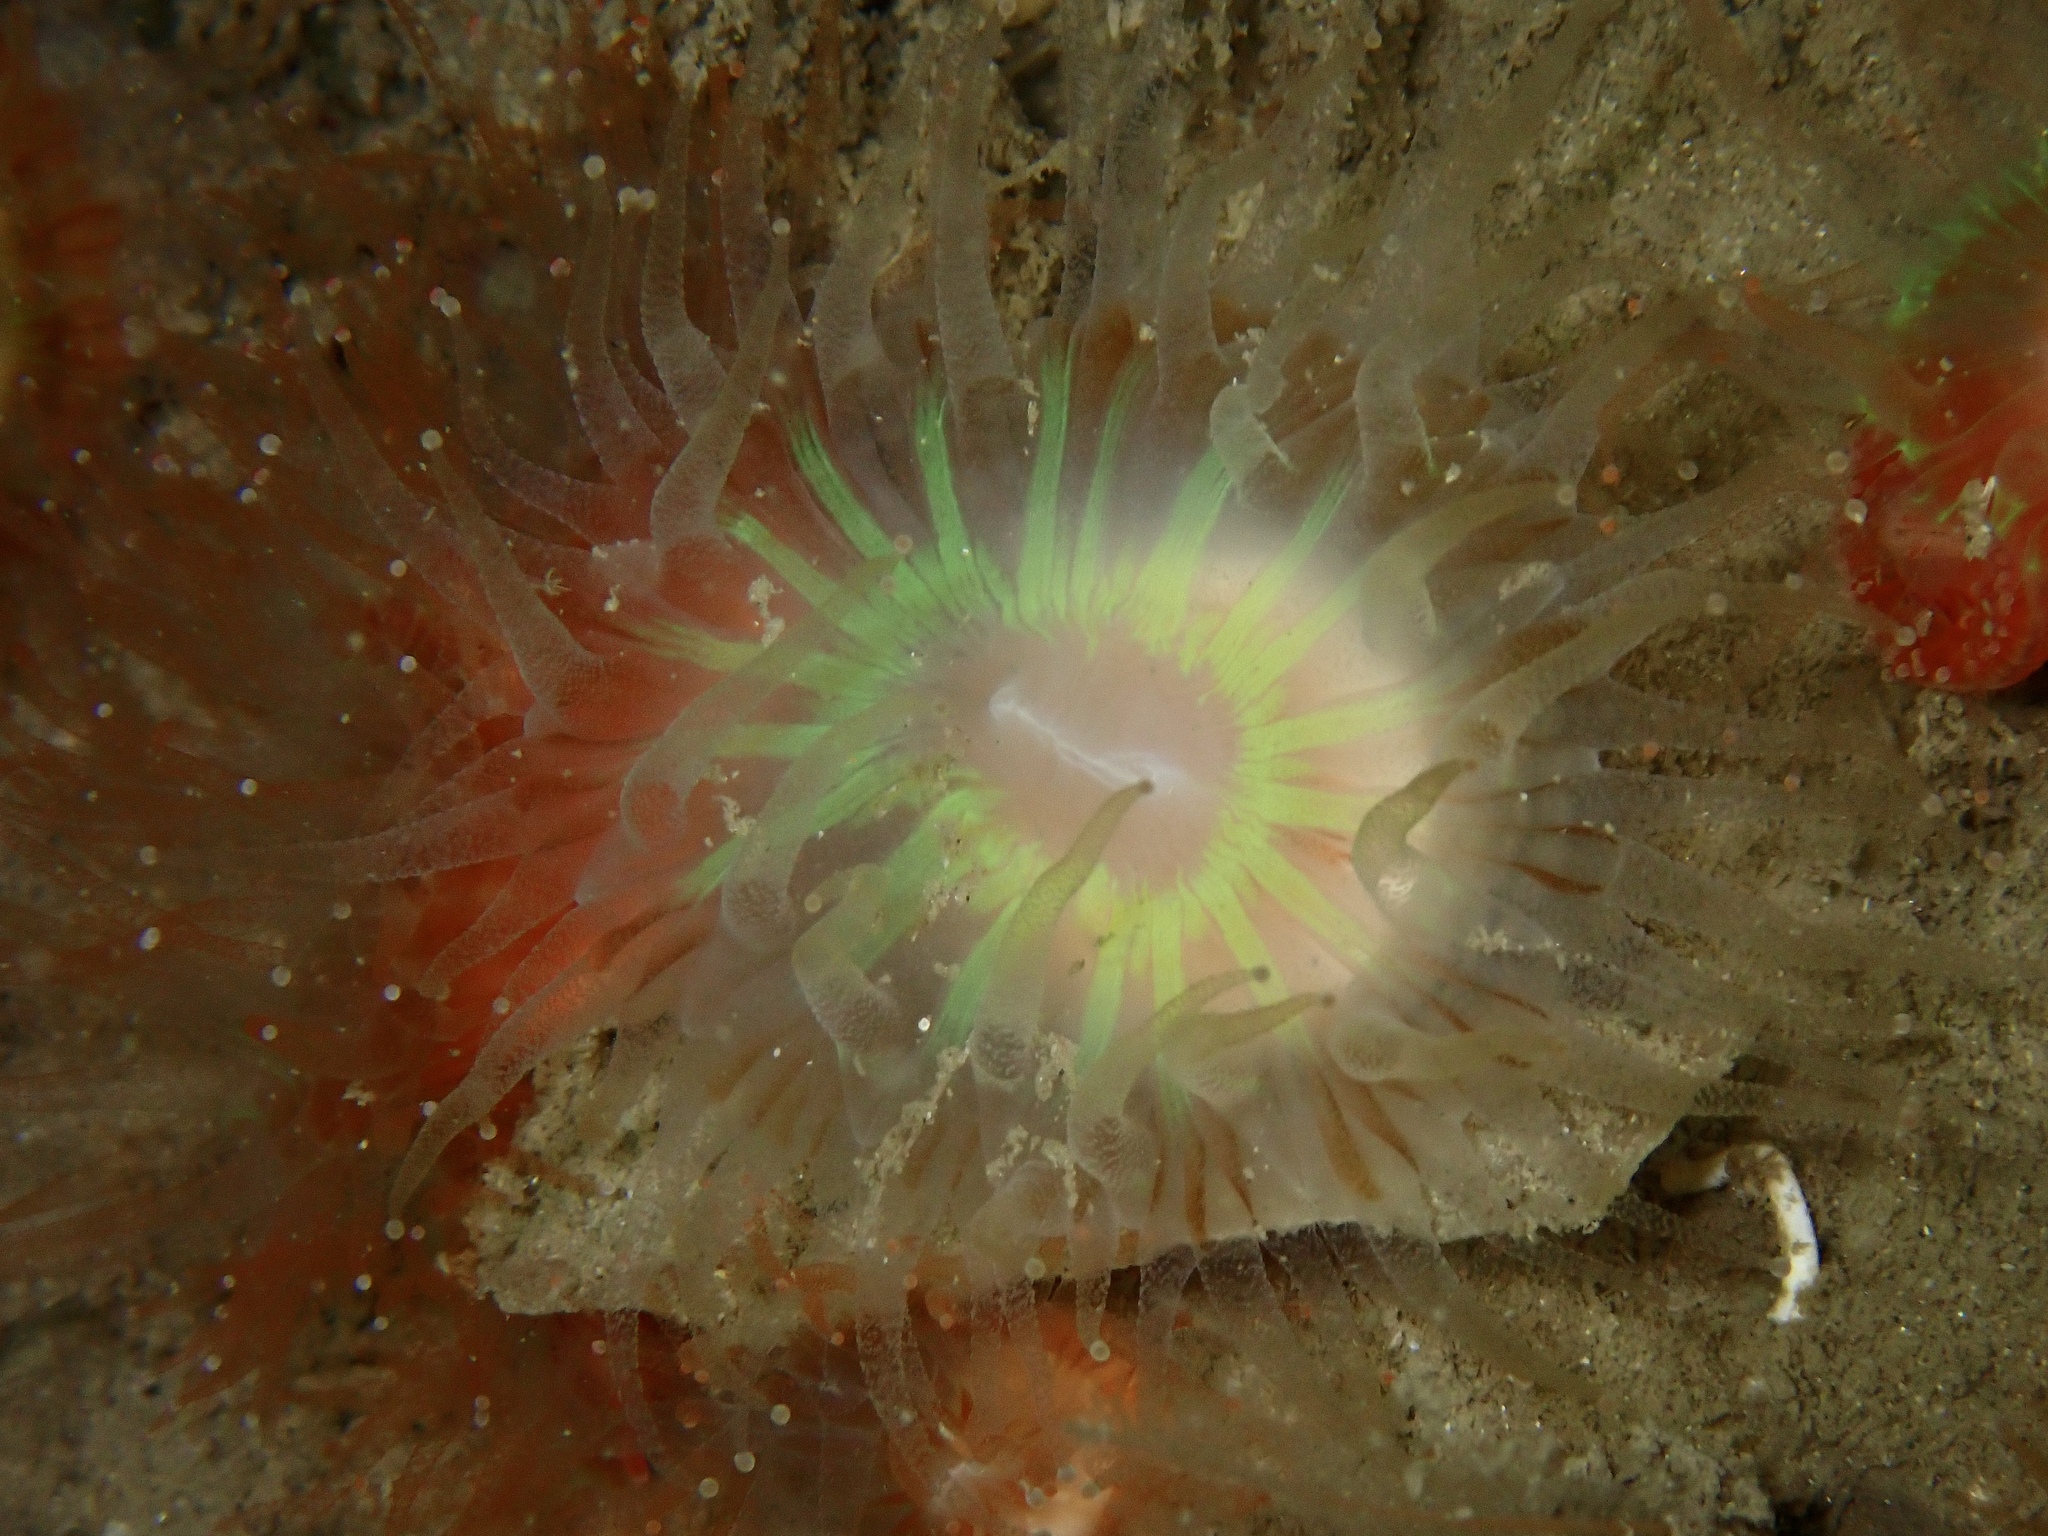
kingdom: Animalia
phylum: Cnidaria
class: Anthozoa
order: Scleractinia
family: Caryophylliidae
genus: Caryophyllia
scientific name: Caryophyllia smithii
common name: Devonshire cup coral
